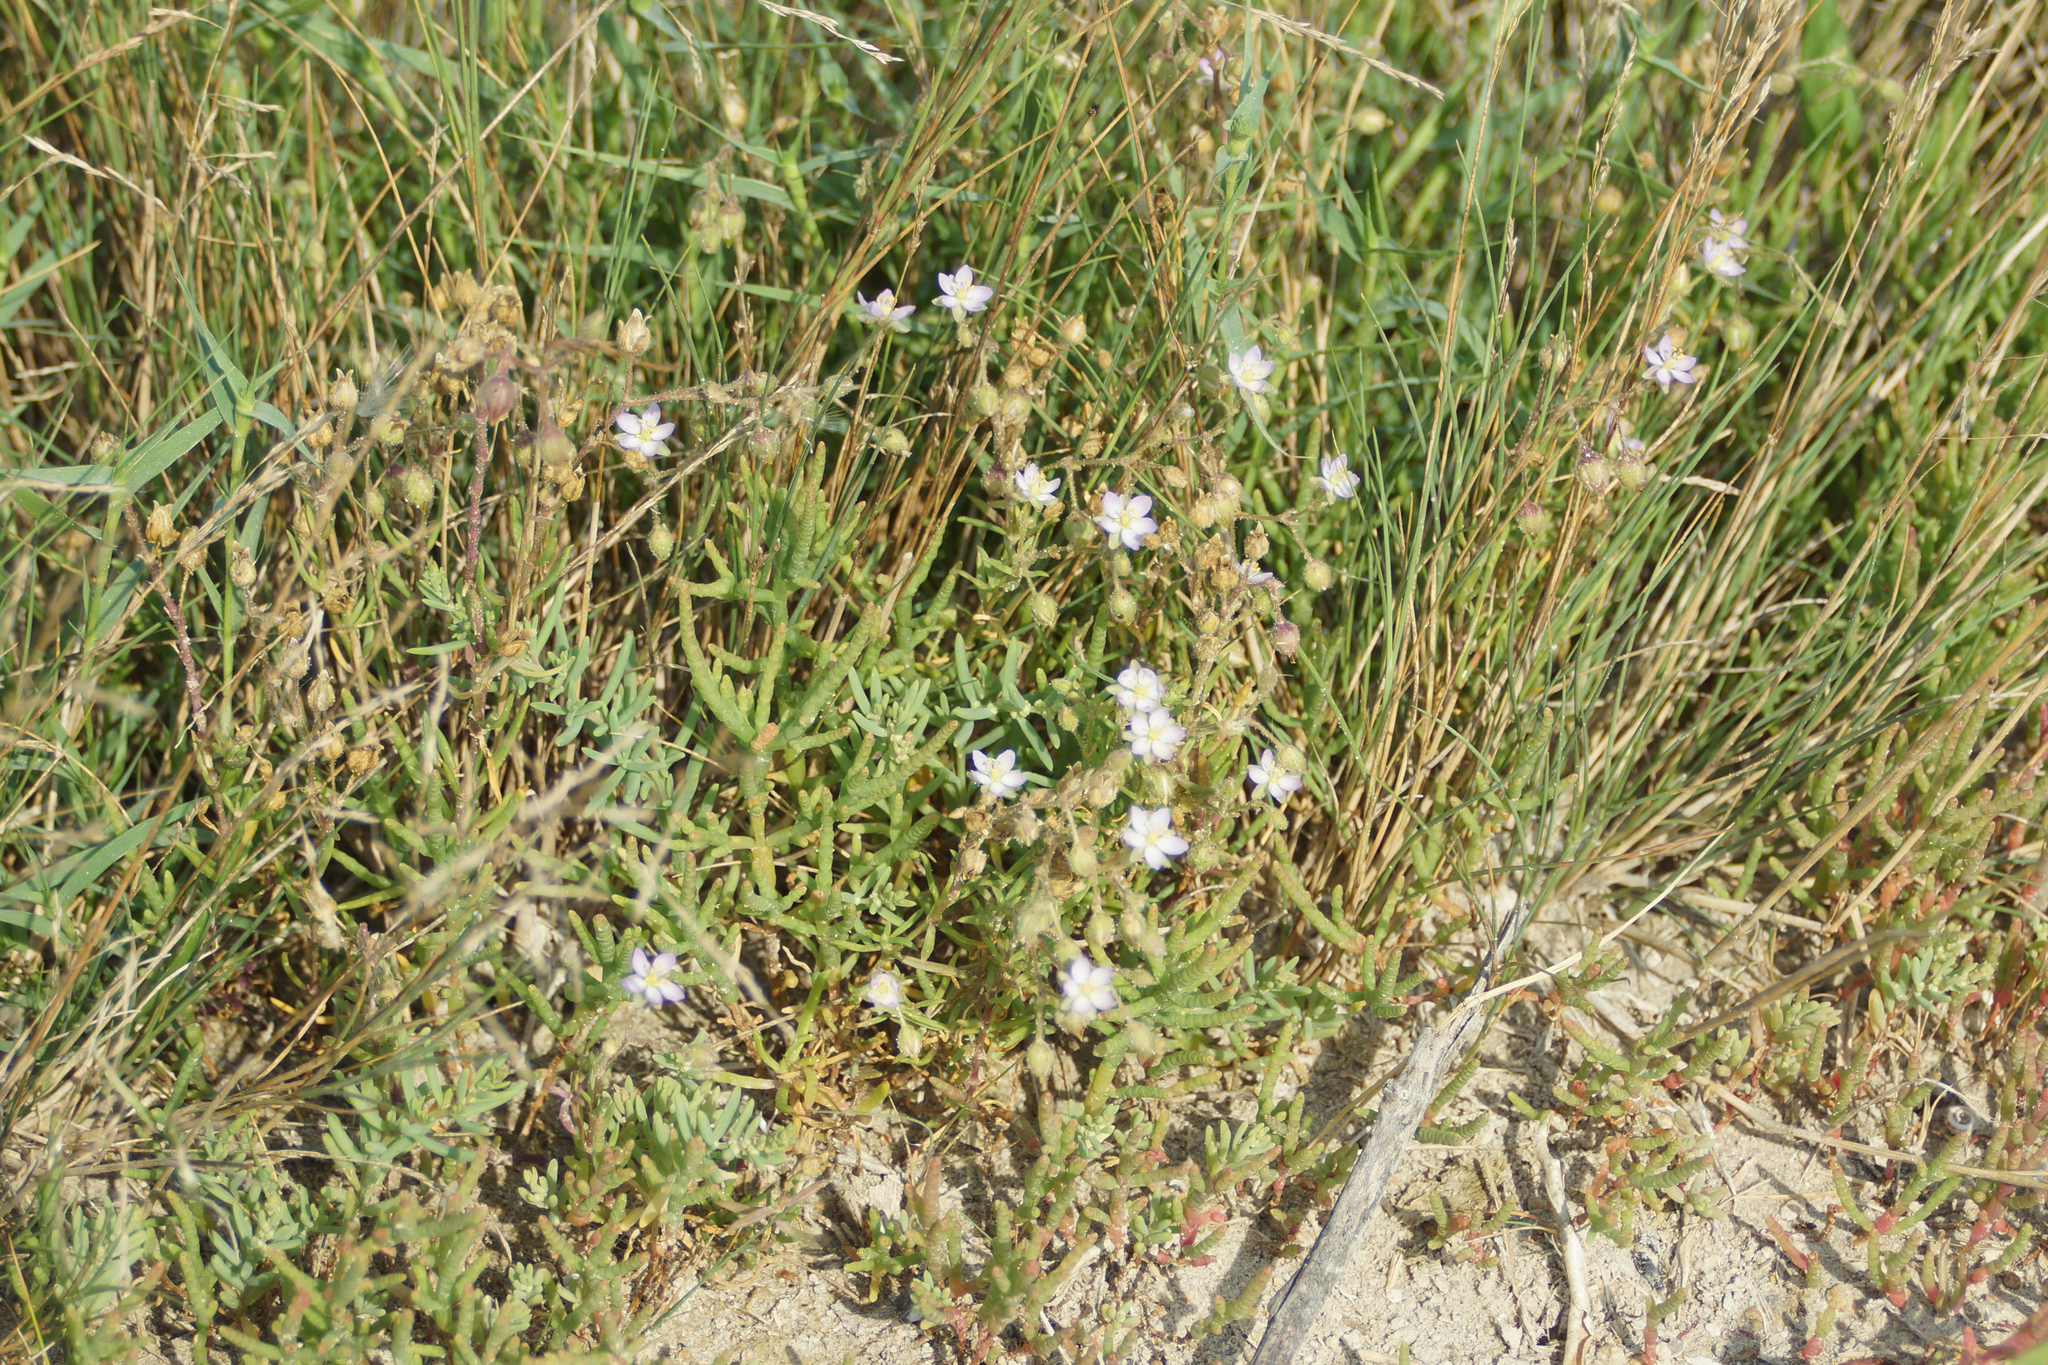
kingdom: Plantae
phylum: Tracheophyta
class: Magnoliopsida
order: Caryophyllales
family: Caryophyllaceae
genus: Spergularia
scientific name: Spergularia media
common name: Greater sea-spurrey
